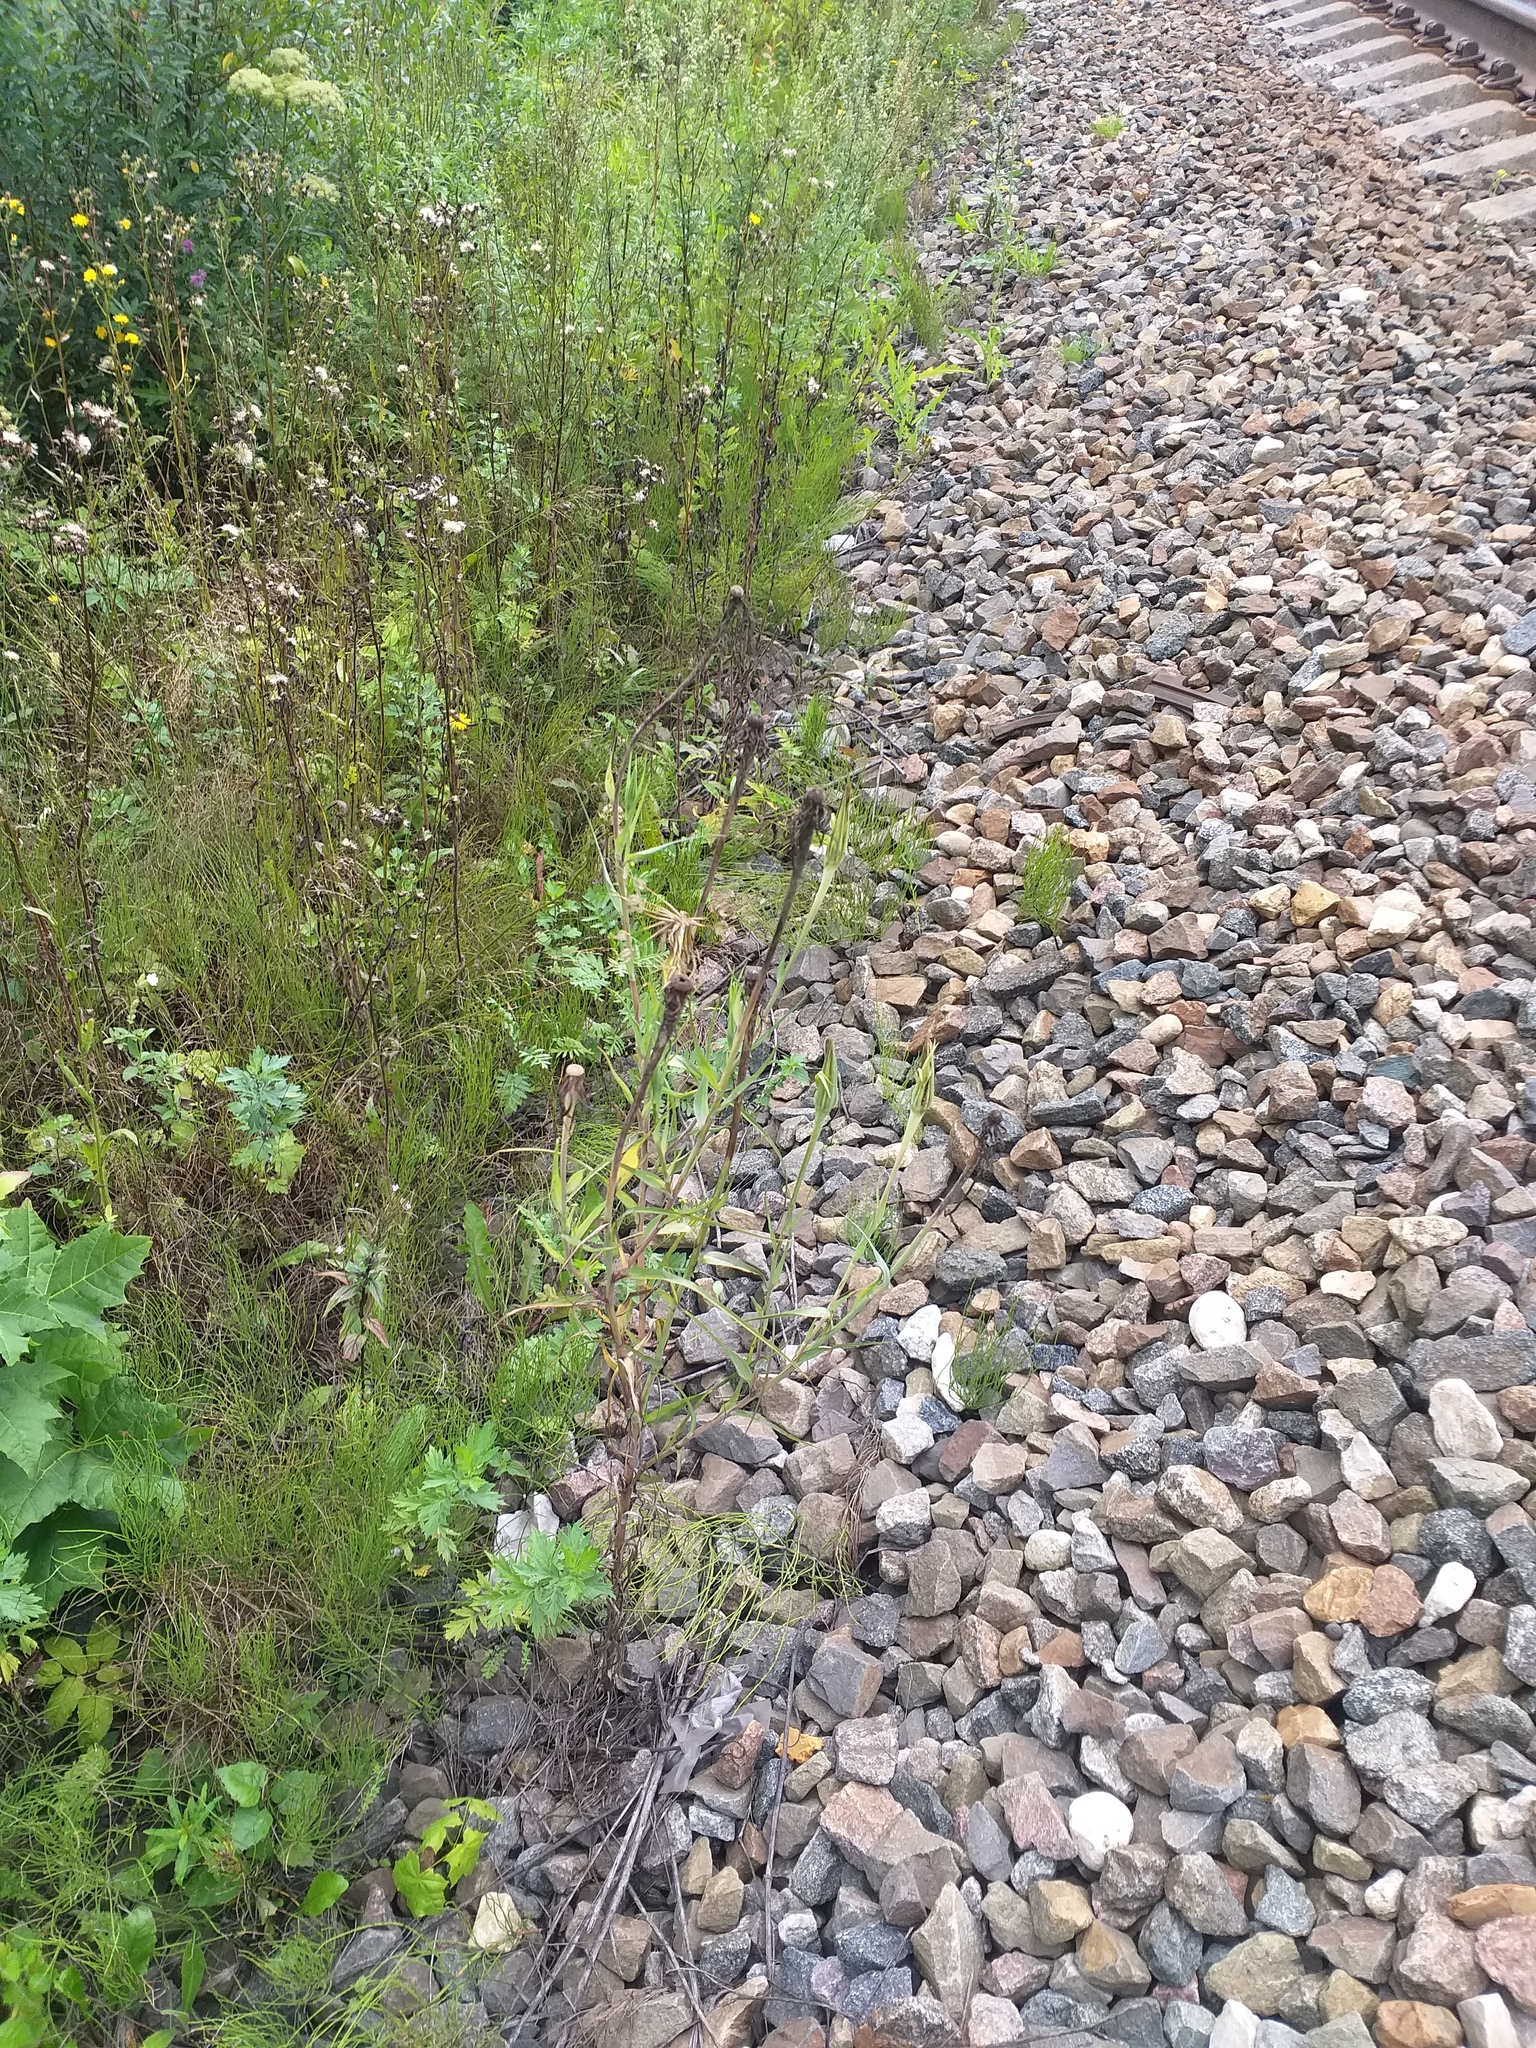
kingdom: Plantae
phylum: Tracheophyta
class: Magnoliopsida
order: Asterales
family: Asteraceae
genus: Tragopogon
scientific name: Tragopogon dubius
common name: Yellow salsify
